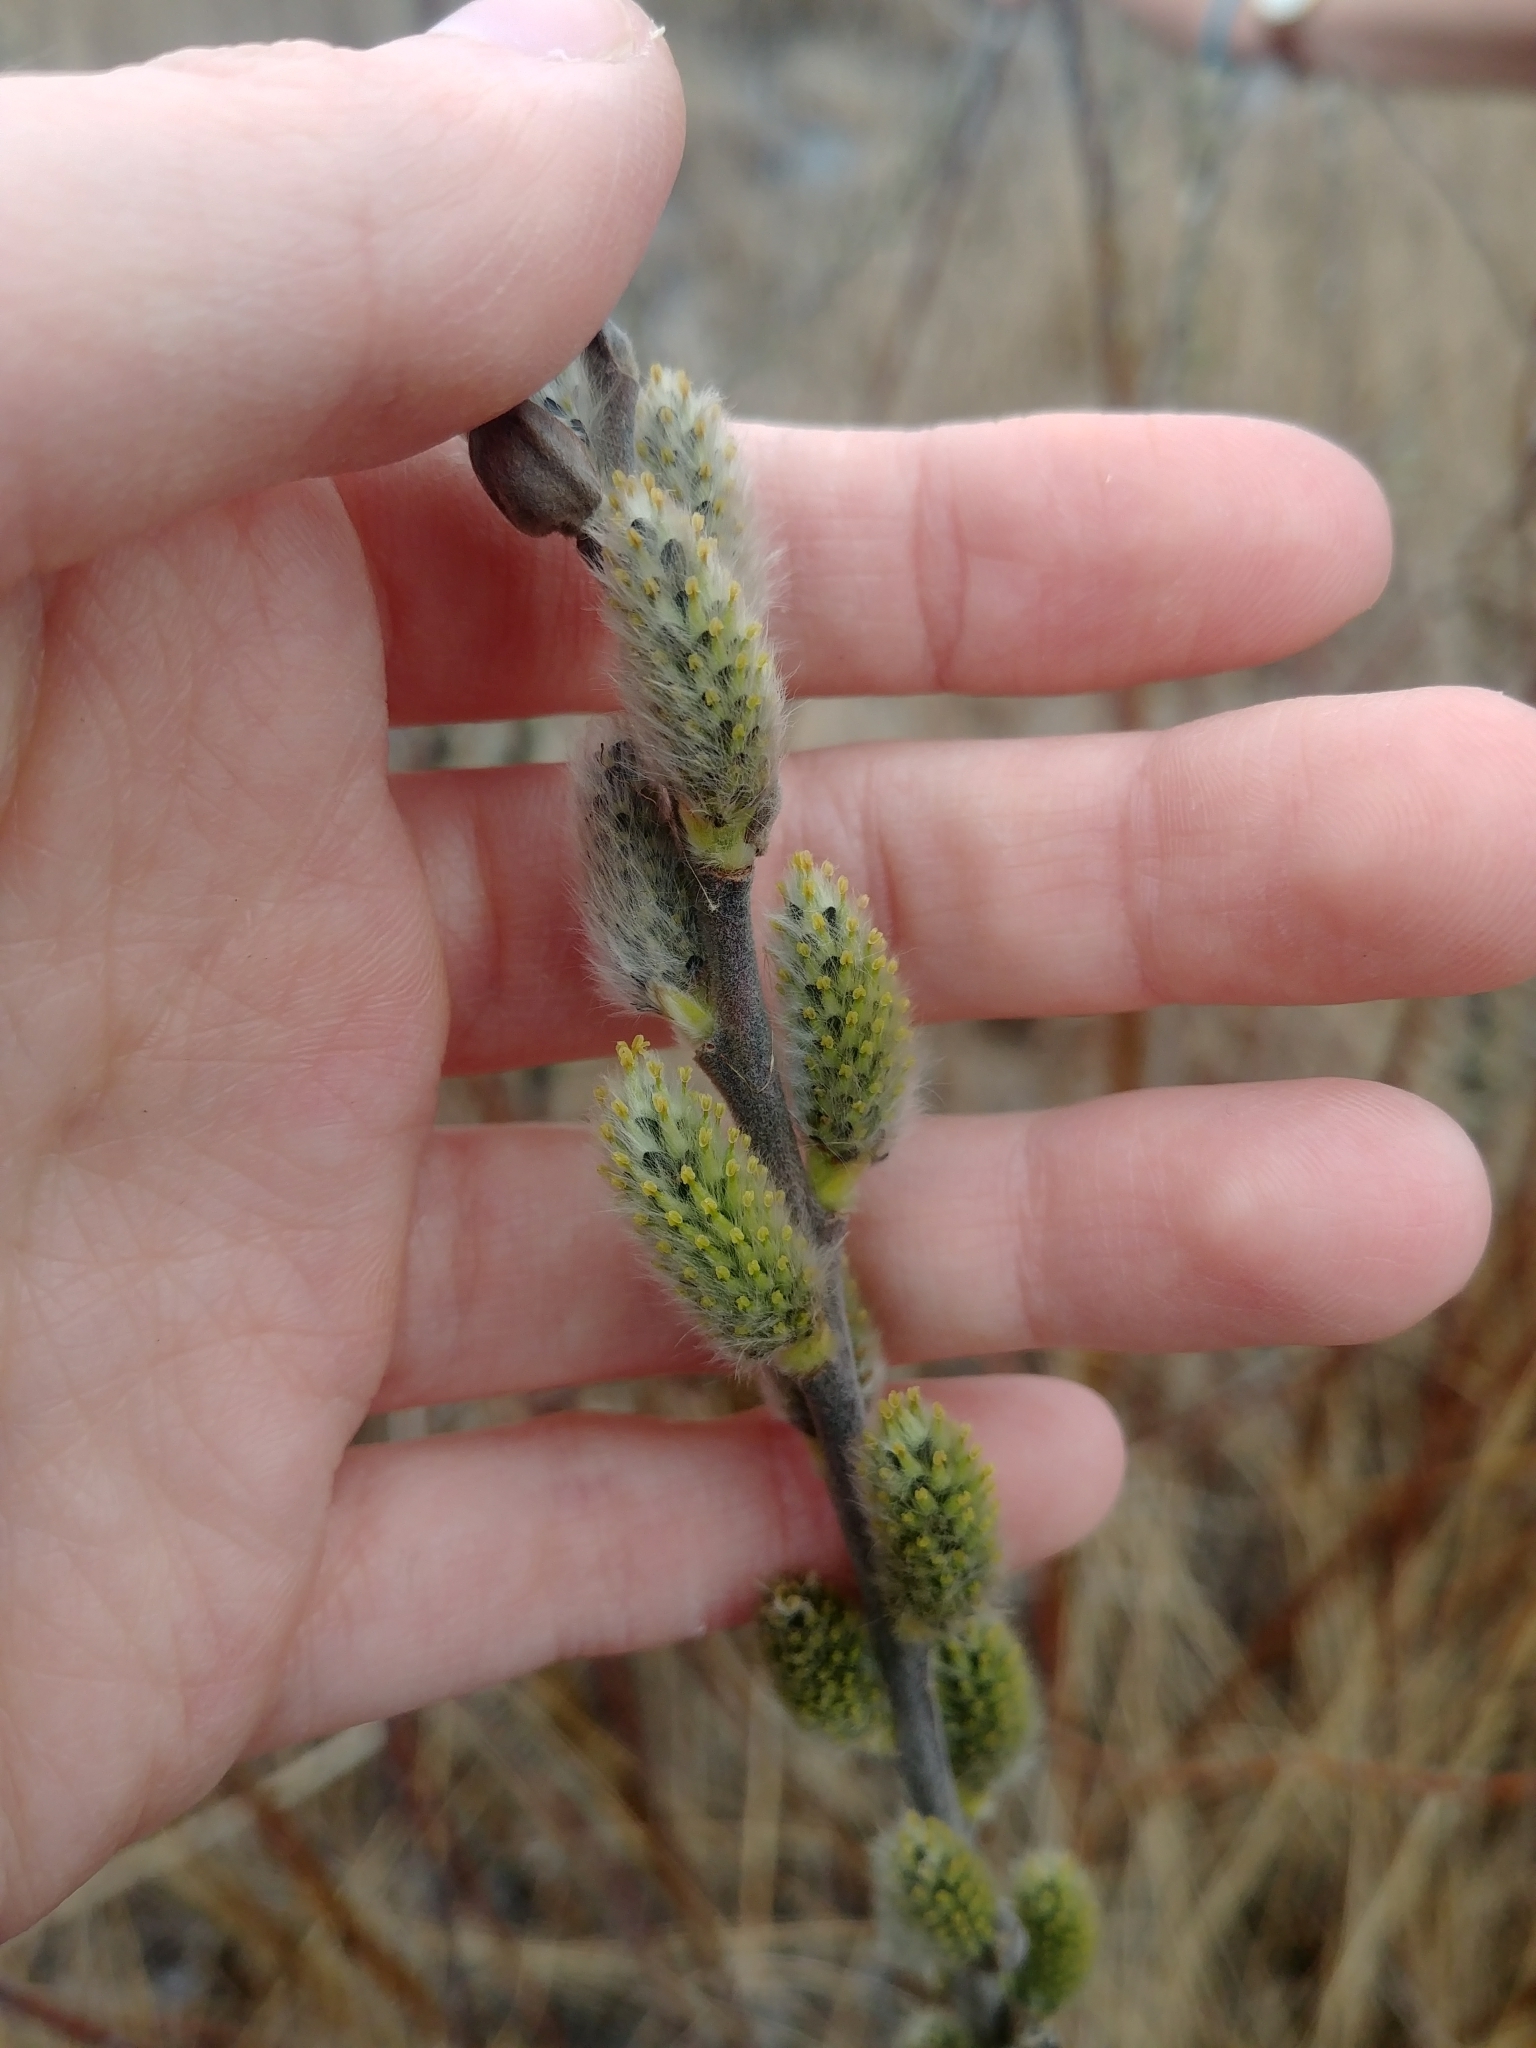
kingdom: Plantae
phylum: Tracheophyta
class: Magnoliopsida
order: Malpighiales
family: Salicaceae
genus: Salix
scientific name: Salix discolor
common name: Glaucous willow
